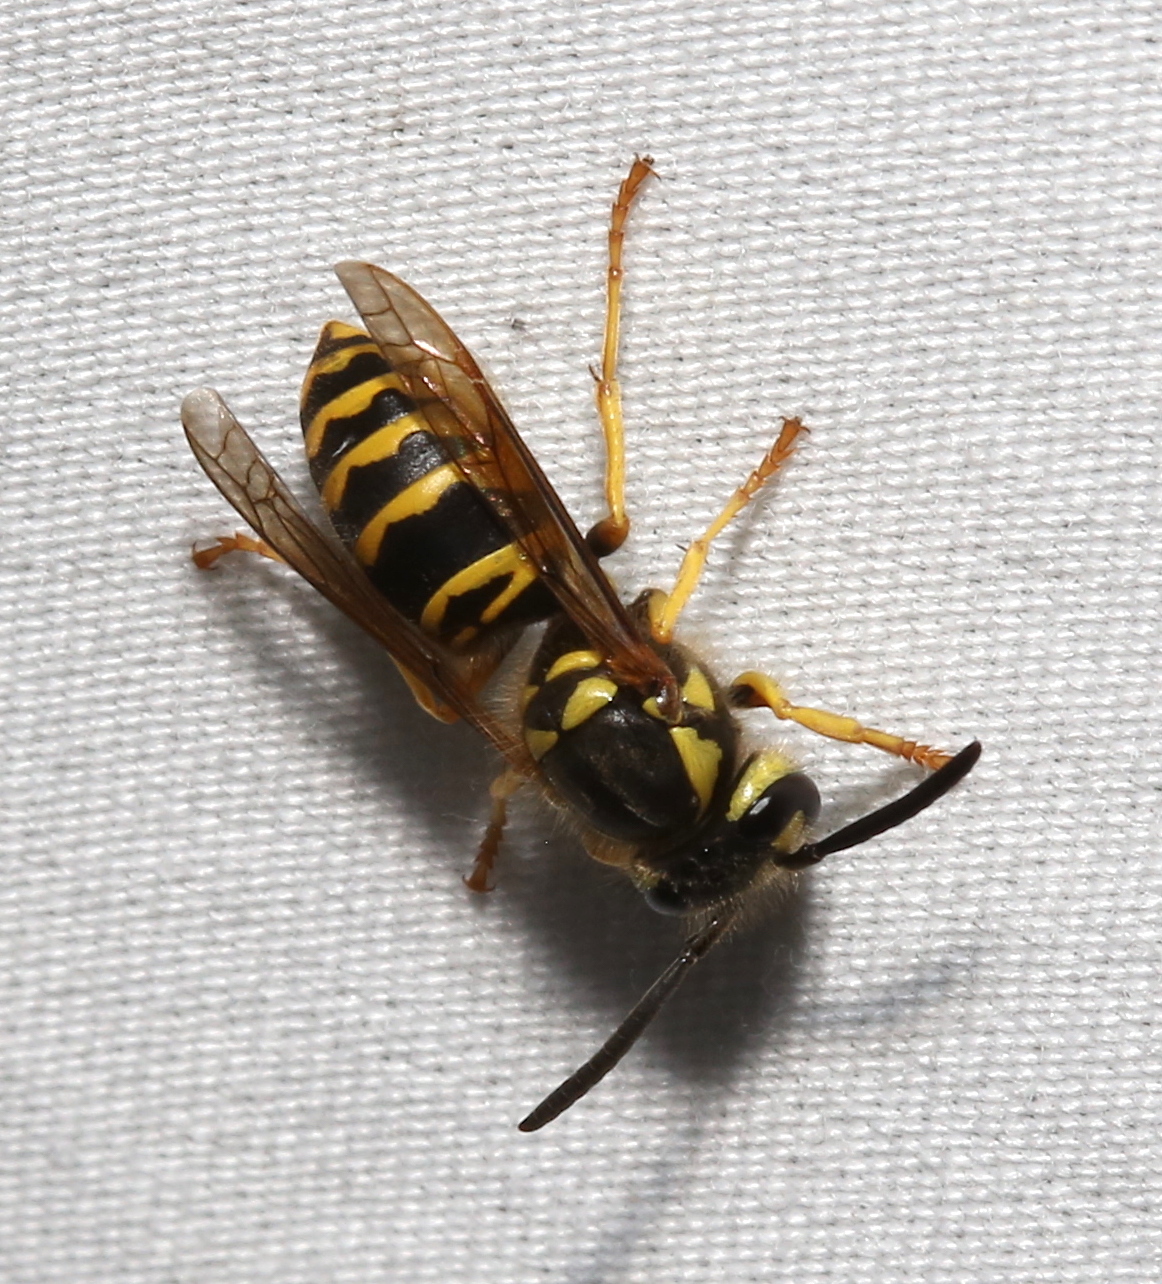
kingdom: Animalia
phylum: Arthropoda
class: Insecta
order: Hymenoptera
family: Vespidae
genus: Vespula
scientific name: Vespula maculifrons
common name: Eastern yellowjacket
